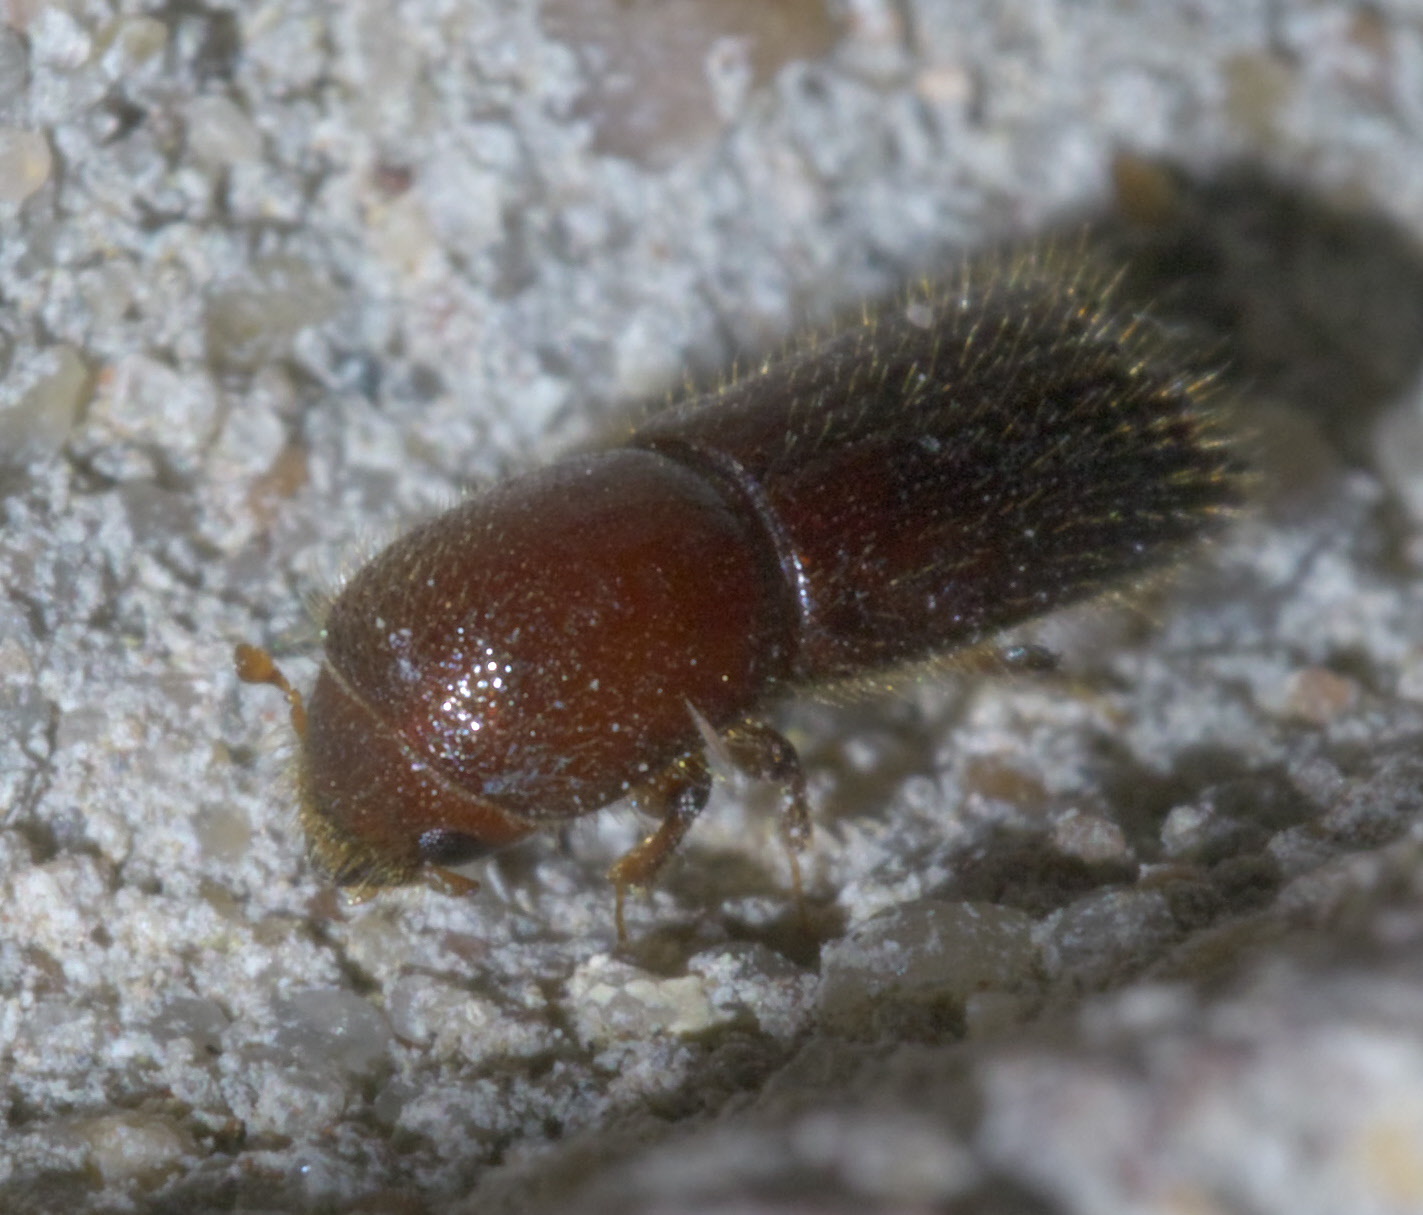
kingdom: Animalia
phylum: Arthropoda
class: Insecta
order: Coleoptera
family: Curculionidae
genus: Xyleborus
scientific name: Xyleborus celsus
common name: Weevil
